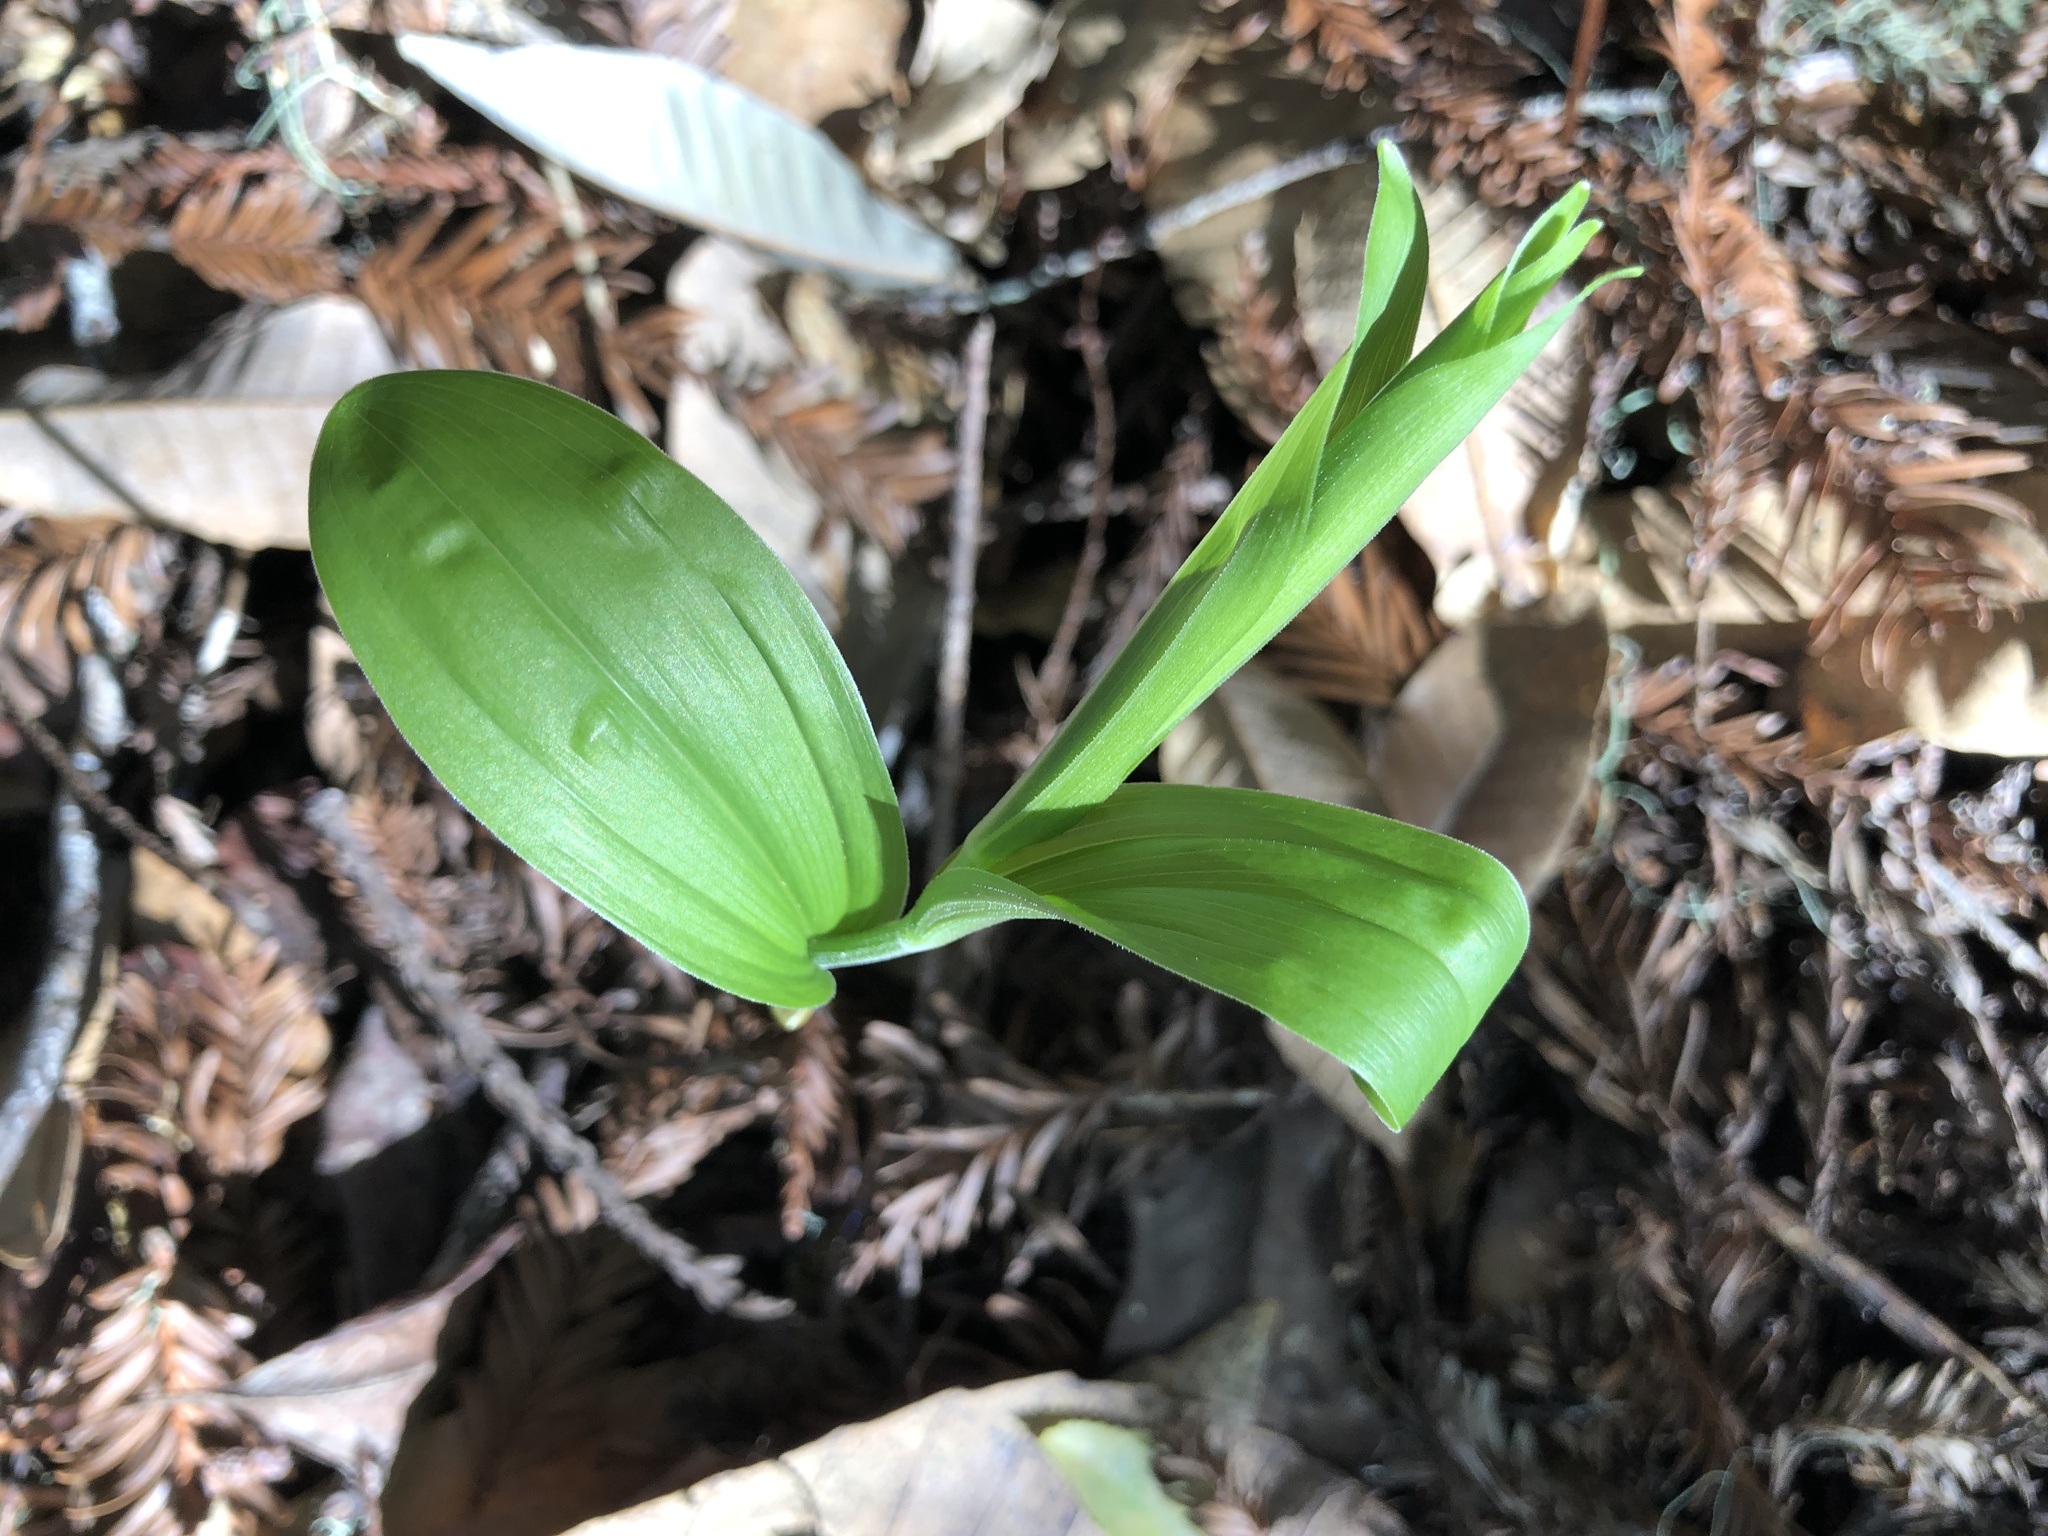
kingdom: Plantae
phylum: Tracheophyta
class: Liliopsida
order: Asparagales
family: Asparagaceae
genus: Maianthemum
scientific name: Maianthemum racemosum
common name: False spikenard
